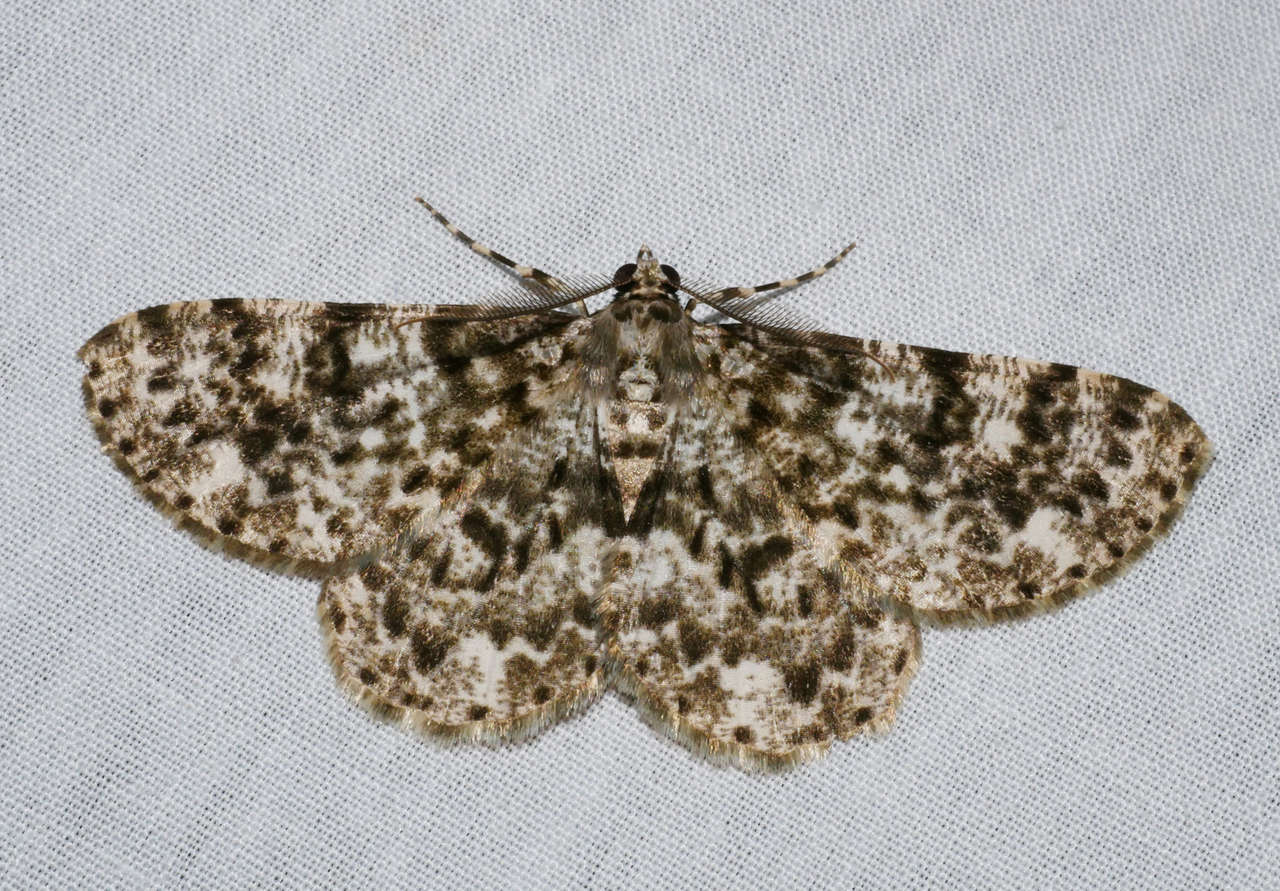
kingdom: Animalia
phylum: Arthropoda
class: Insecta
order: Lepidoptera
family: Geometridae
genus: Thallogama
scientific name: Thallogama corticola
